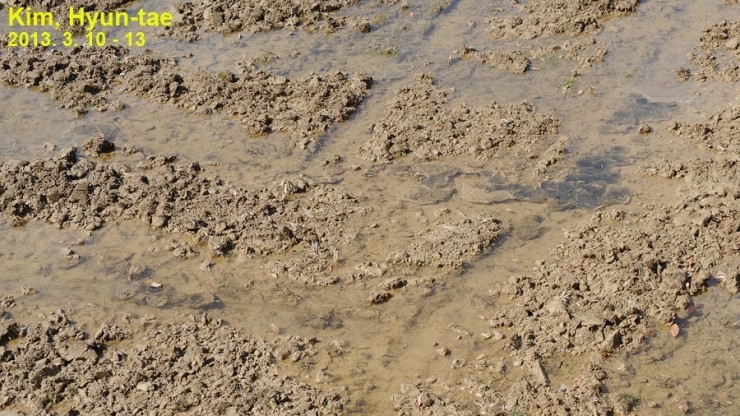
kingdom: Animalia
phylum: Chordata
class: Amphibia
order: Anura
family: Ranidae
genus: Rana
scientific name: Rana uenoi
